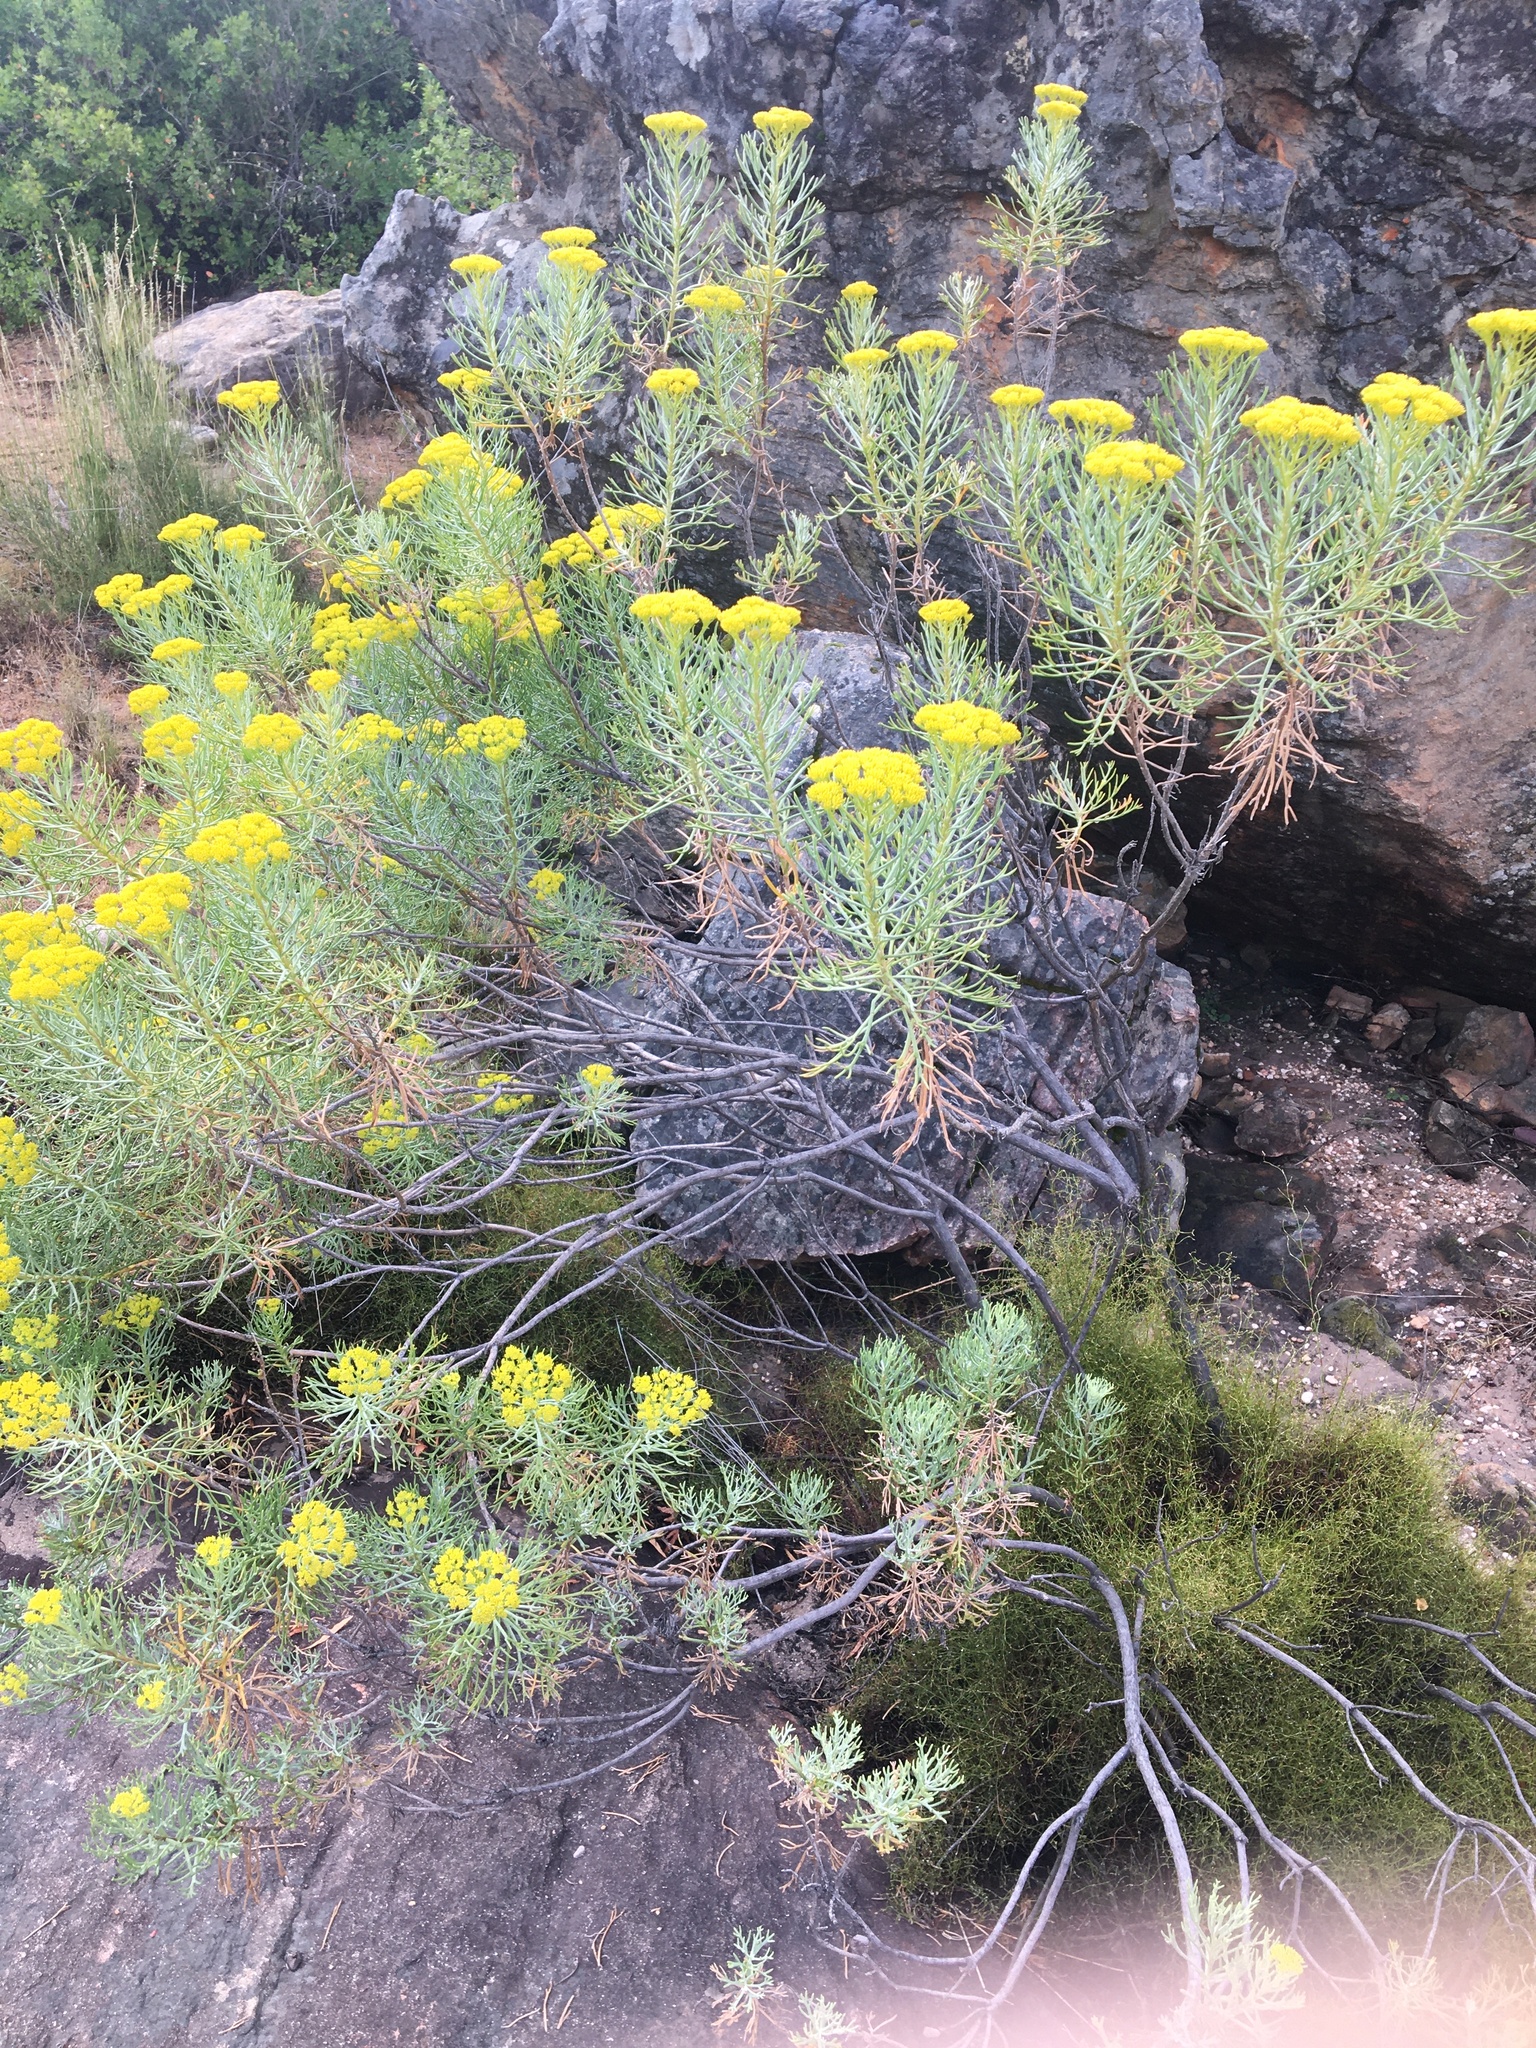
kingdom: Plantae
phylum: Tracheophyta
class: Magnoliopsida
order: Asterales
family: Asteraceae
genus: Hymenolepis
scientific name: Hymenolepis crithmifolia
